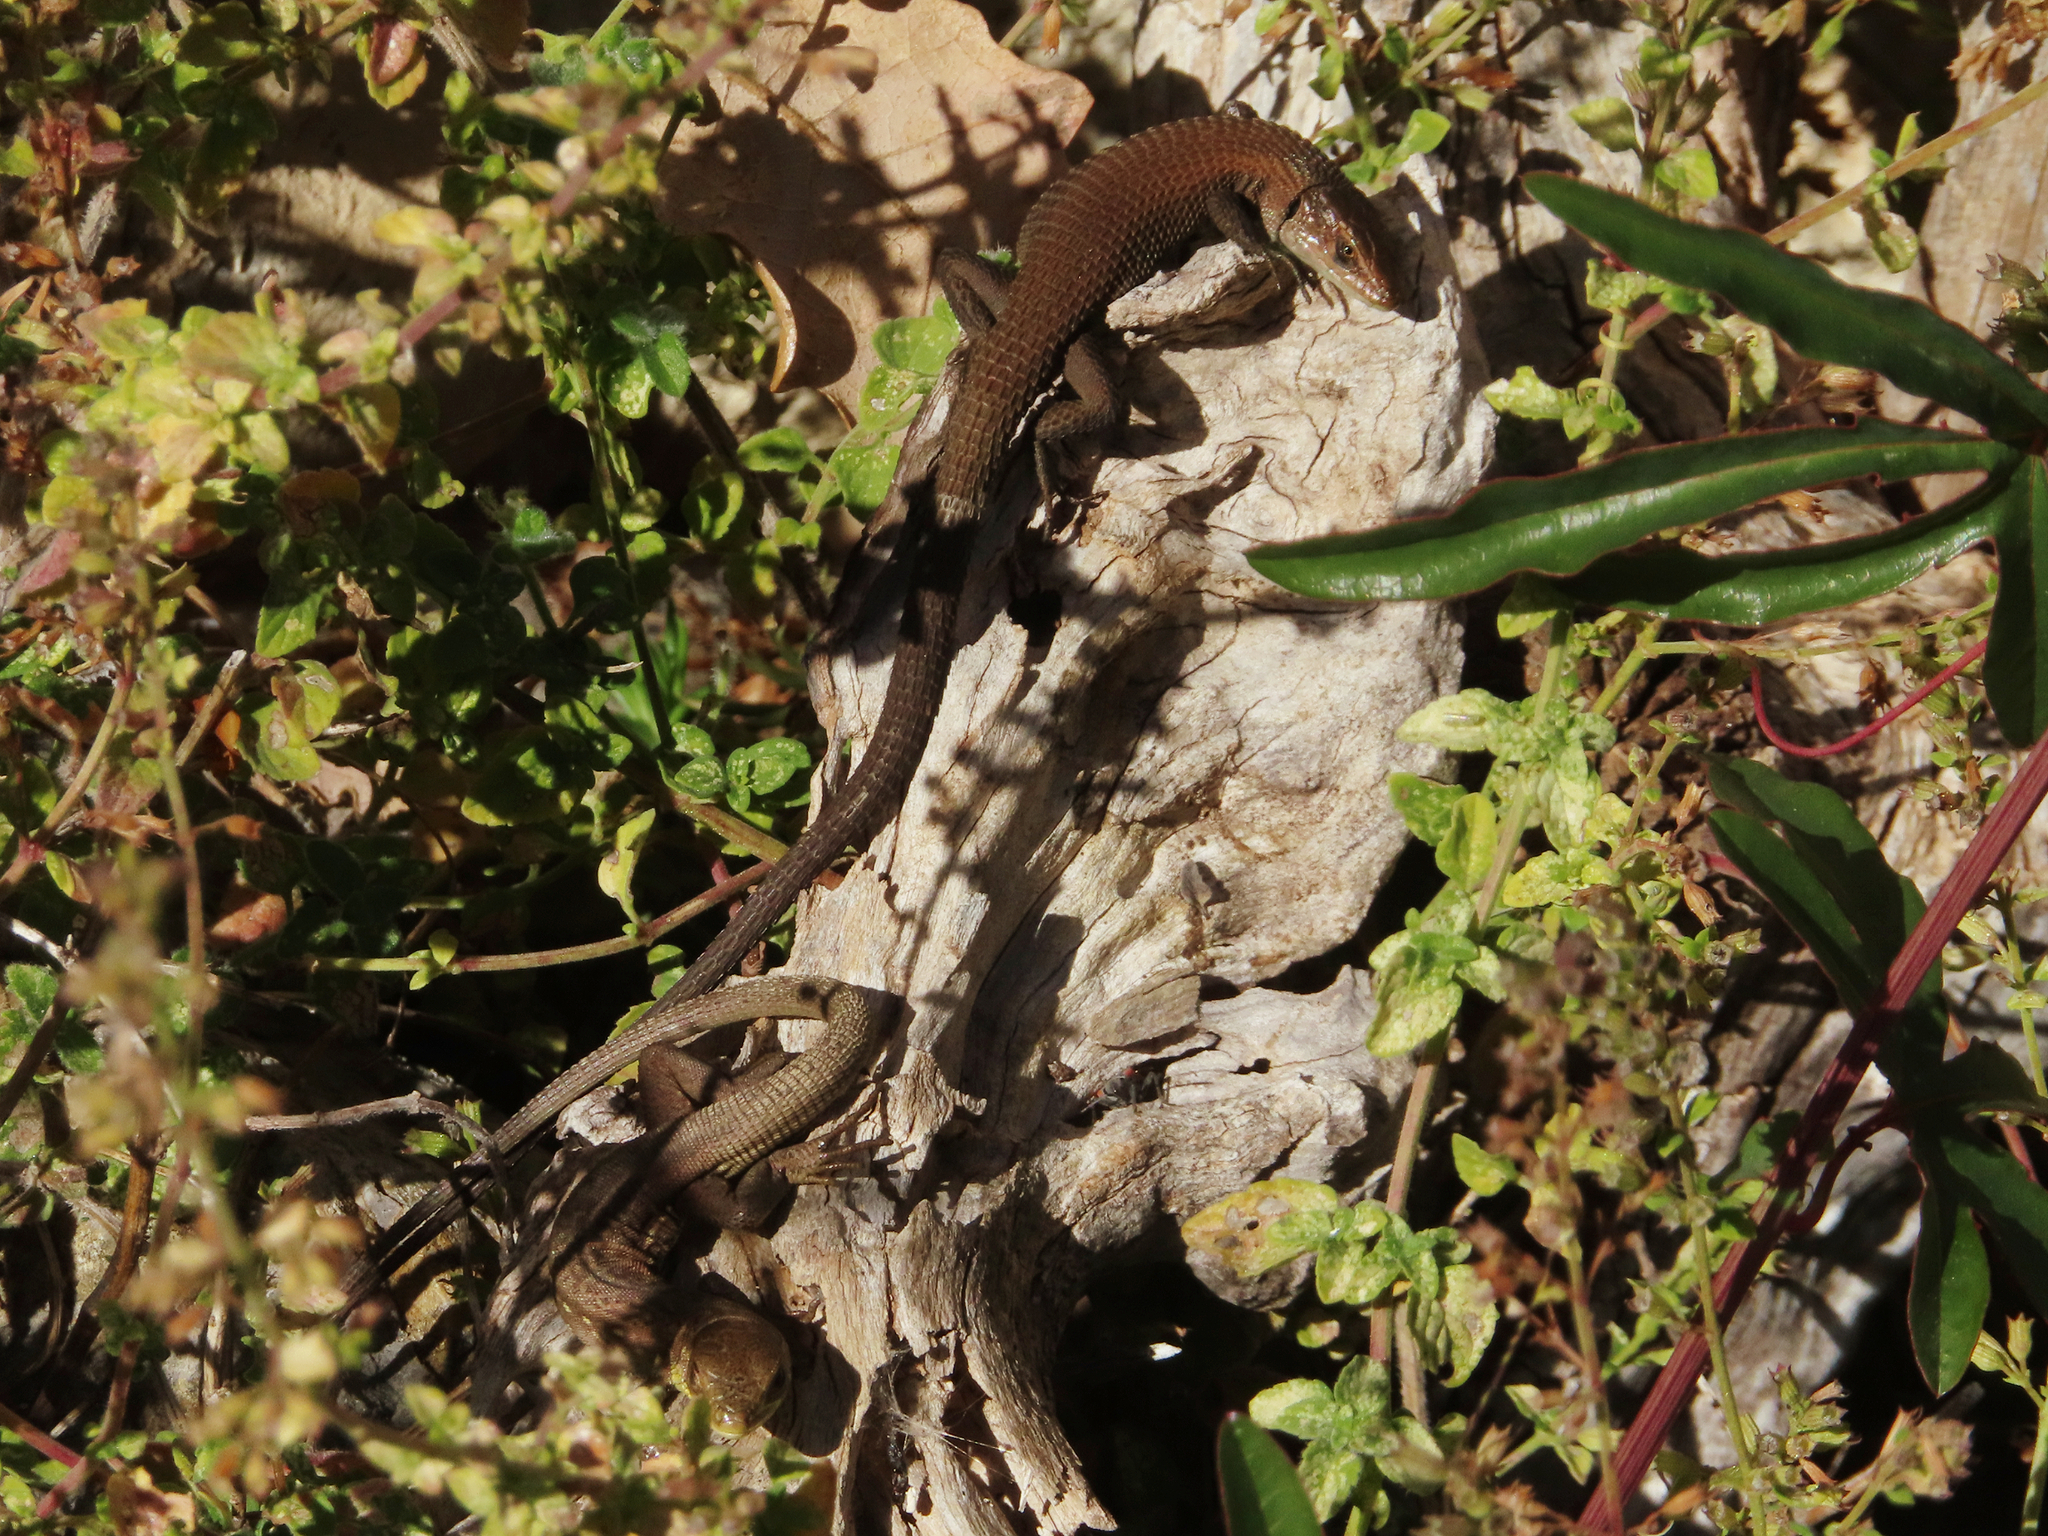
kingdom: Animalia
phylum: Chordata
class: Squamata
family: Lacertidae
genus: Algyroides
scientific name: Algyroides moreoticus
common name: Greek algyroides
